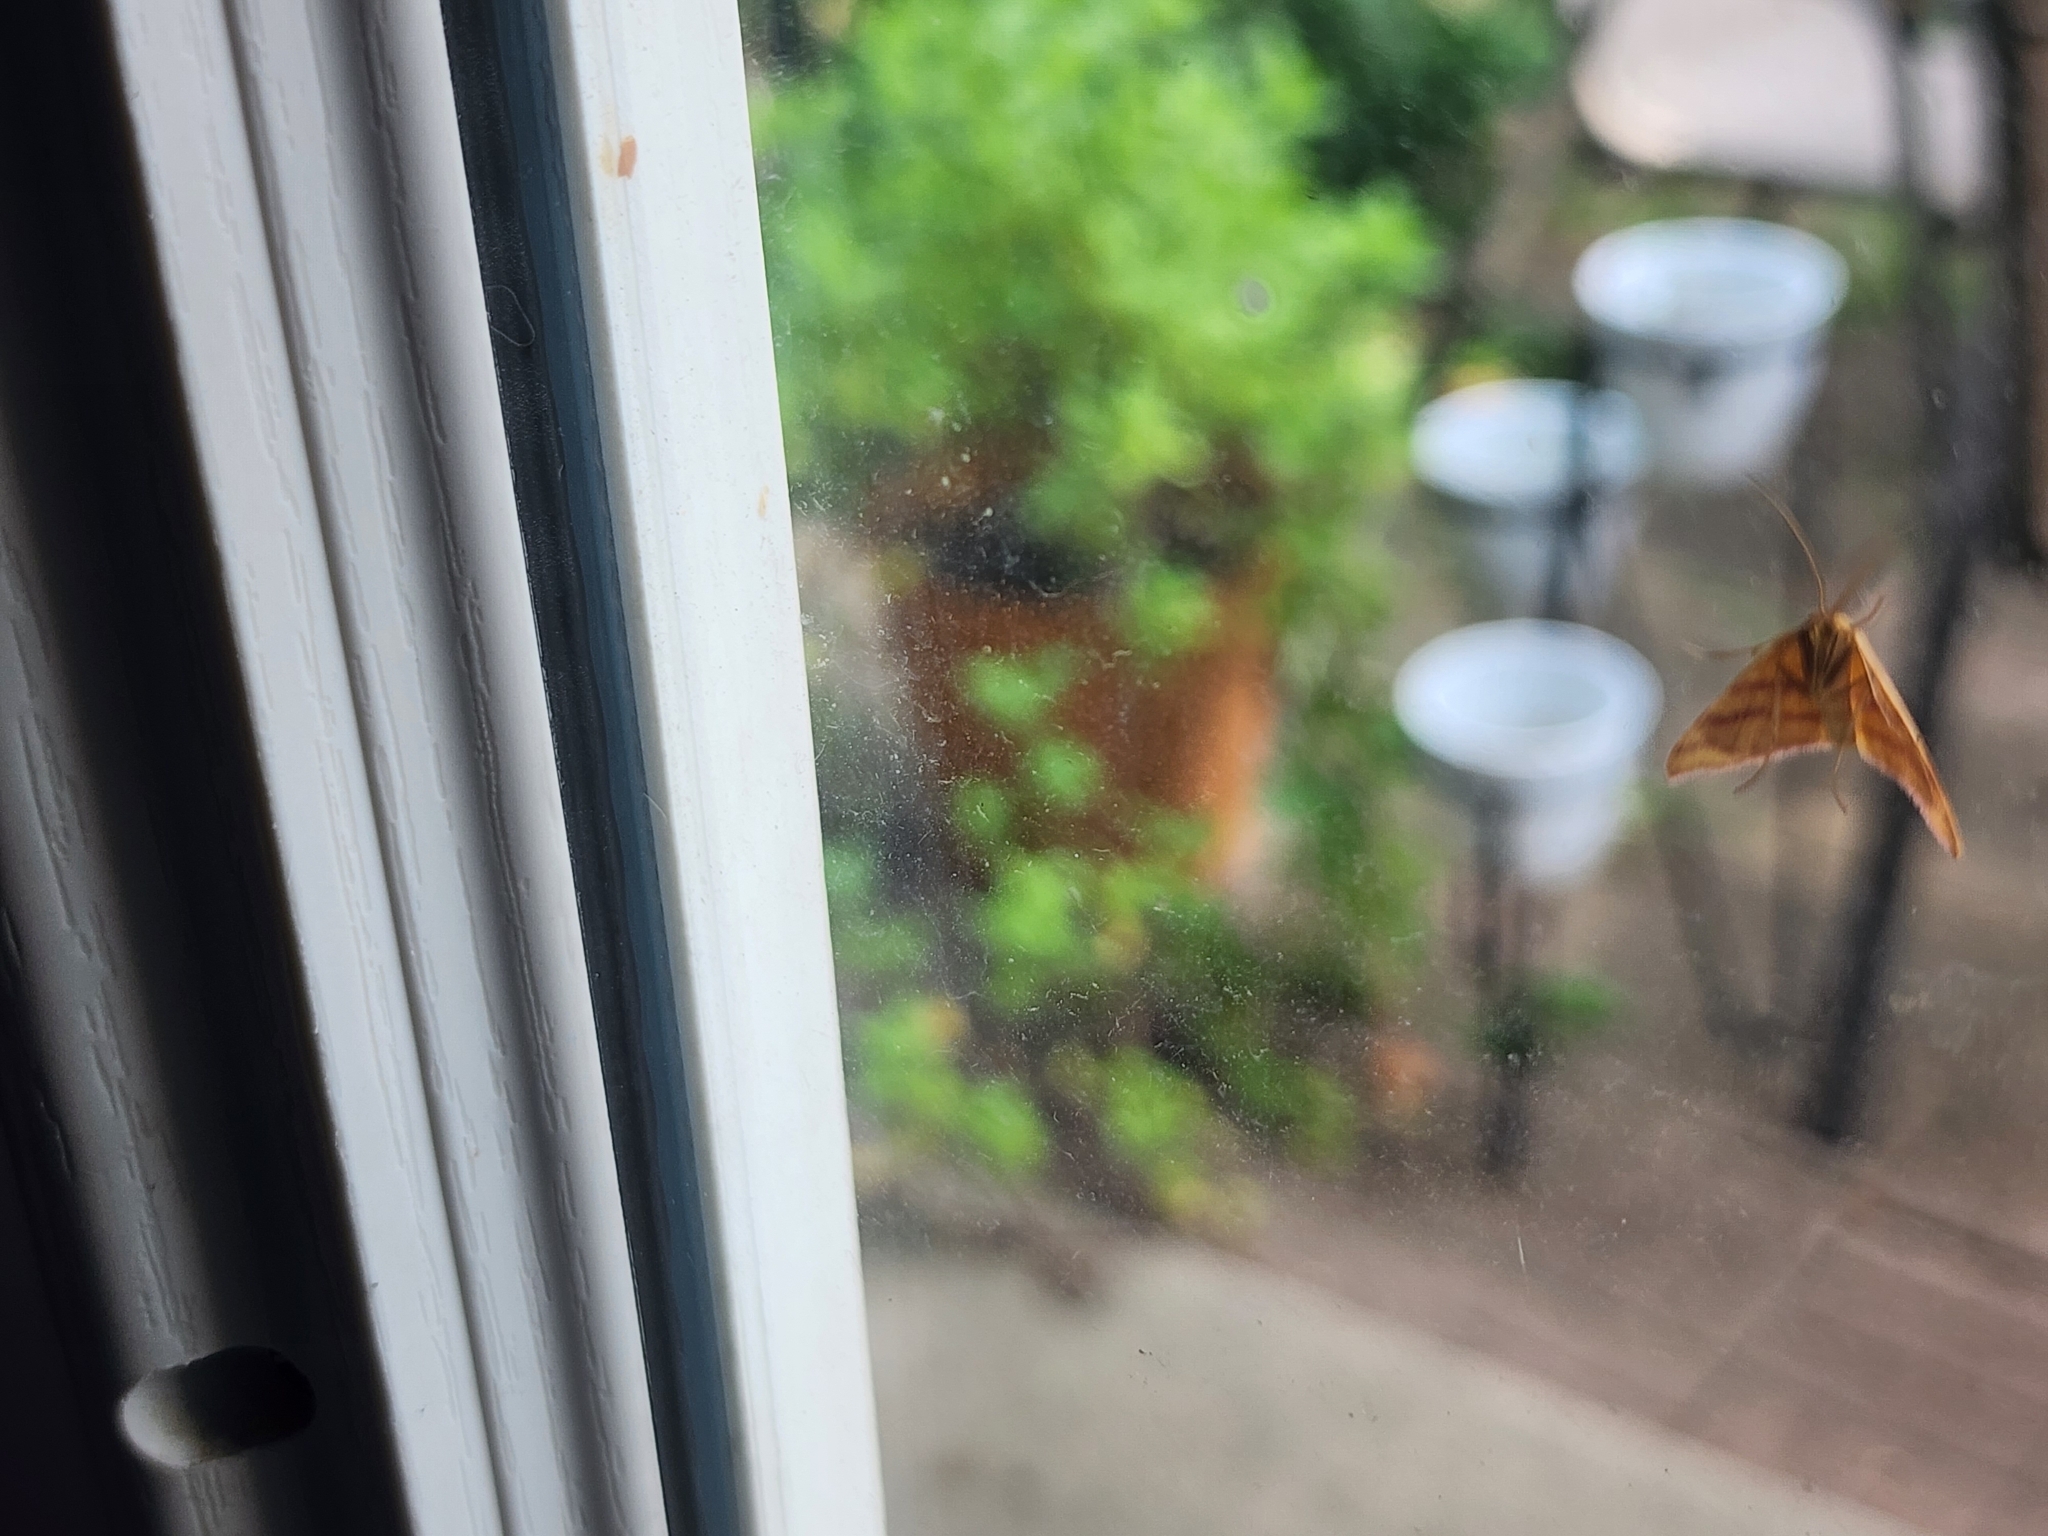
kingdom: Animalia
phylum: Arthropoda
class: Insecta
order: Lepidoptera
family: Geometridae
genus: Haematopis
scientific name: Haematopis grataria
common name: Chickweed geometer
